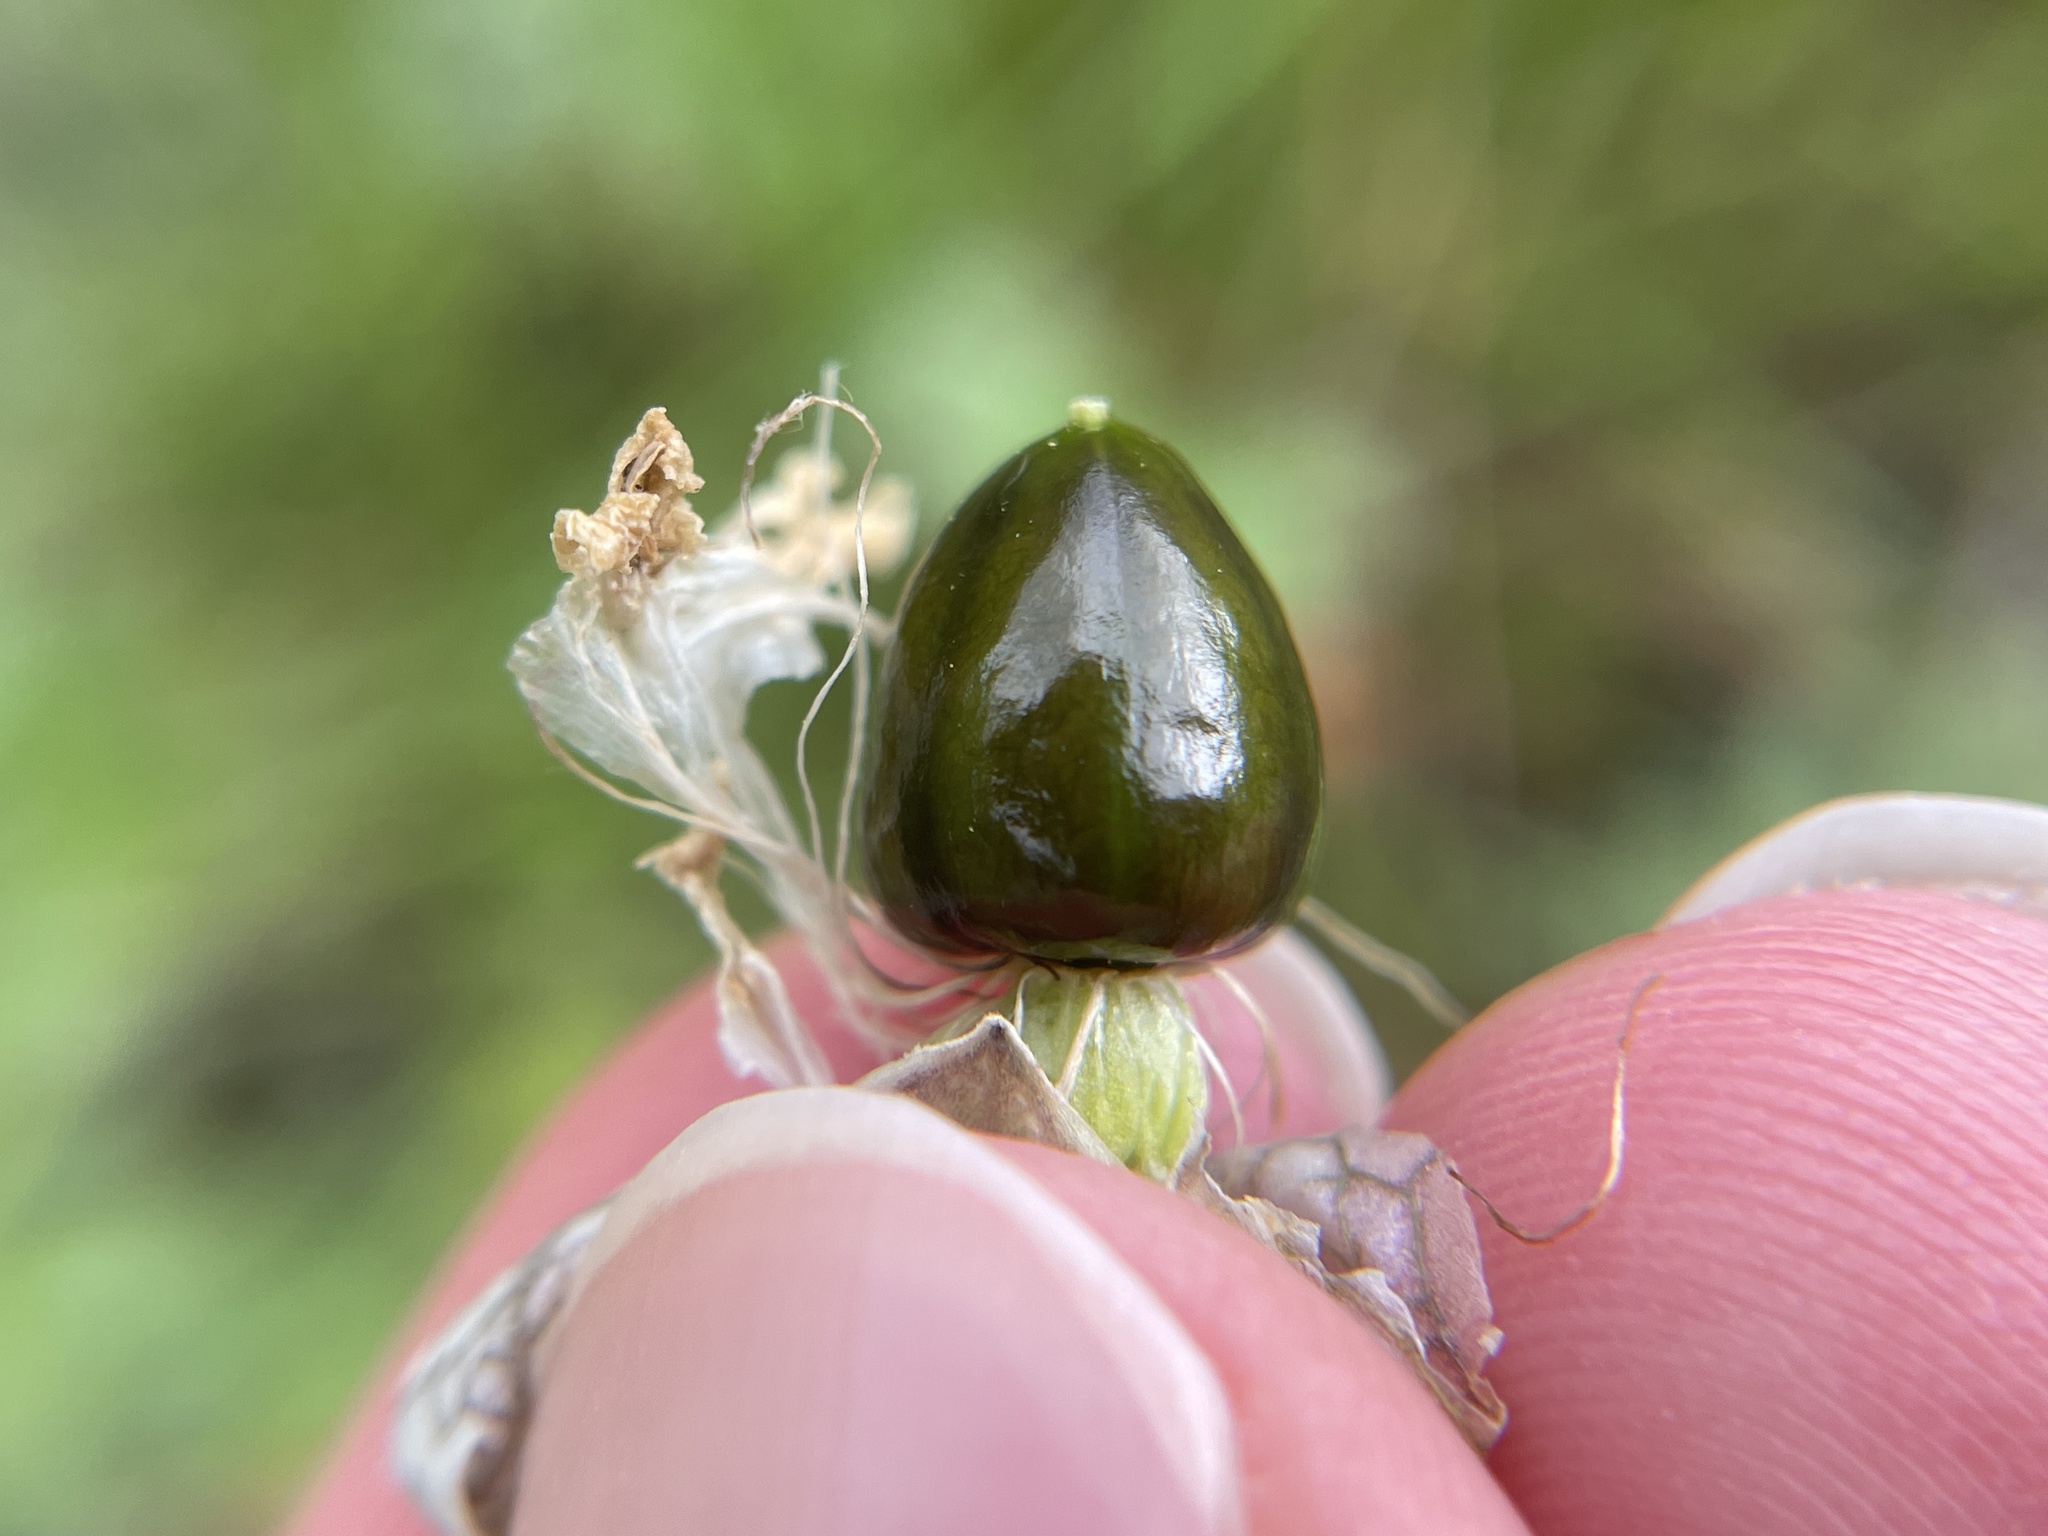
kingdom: Plantae
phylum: Tracheophyta
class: Magnoliopsida
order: Caryophyllales
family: Caryophyllaceae
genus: Silene
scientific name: Silene vulgaris
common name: Bladder campion
